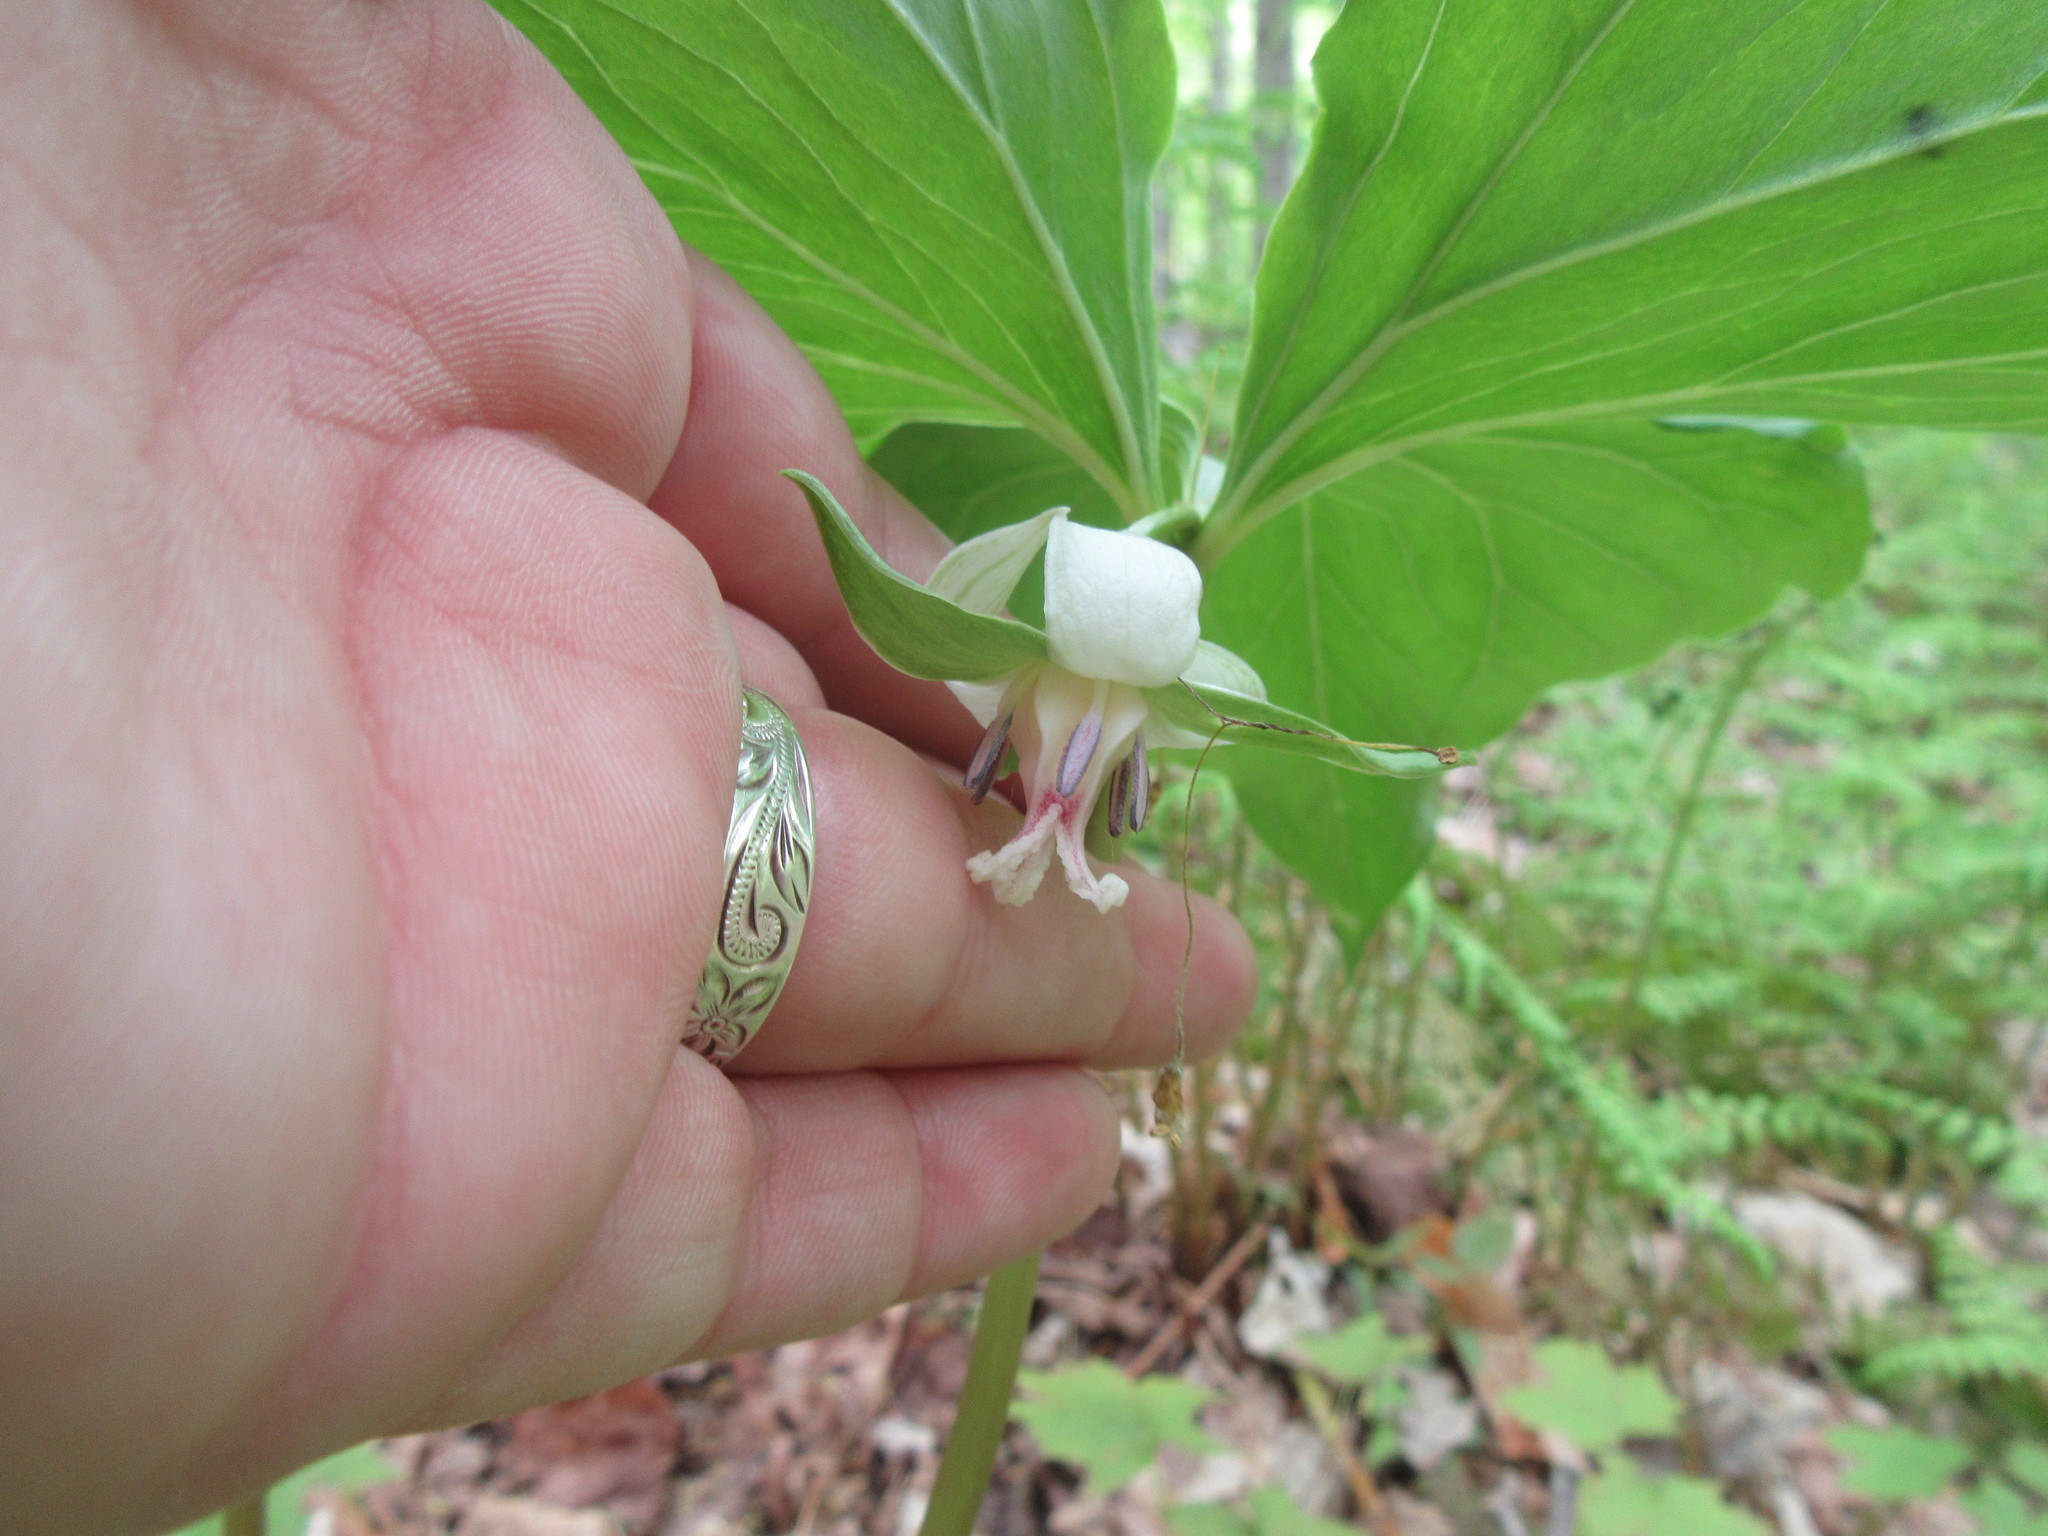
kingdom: Plantae
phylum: Tracheophyta
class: Liliopsida
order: Liliales
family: Melanthiaceae
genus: Trillium
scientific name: Trillium cernuum
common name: Nodding trillium
